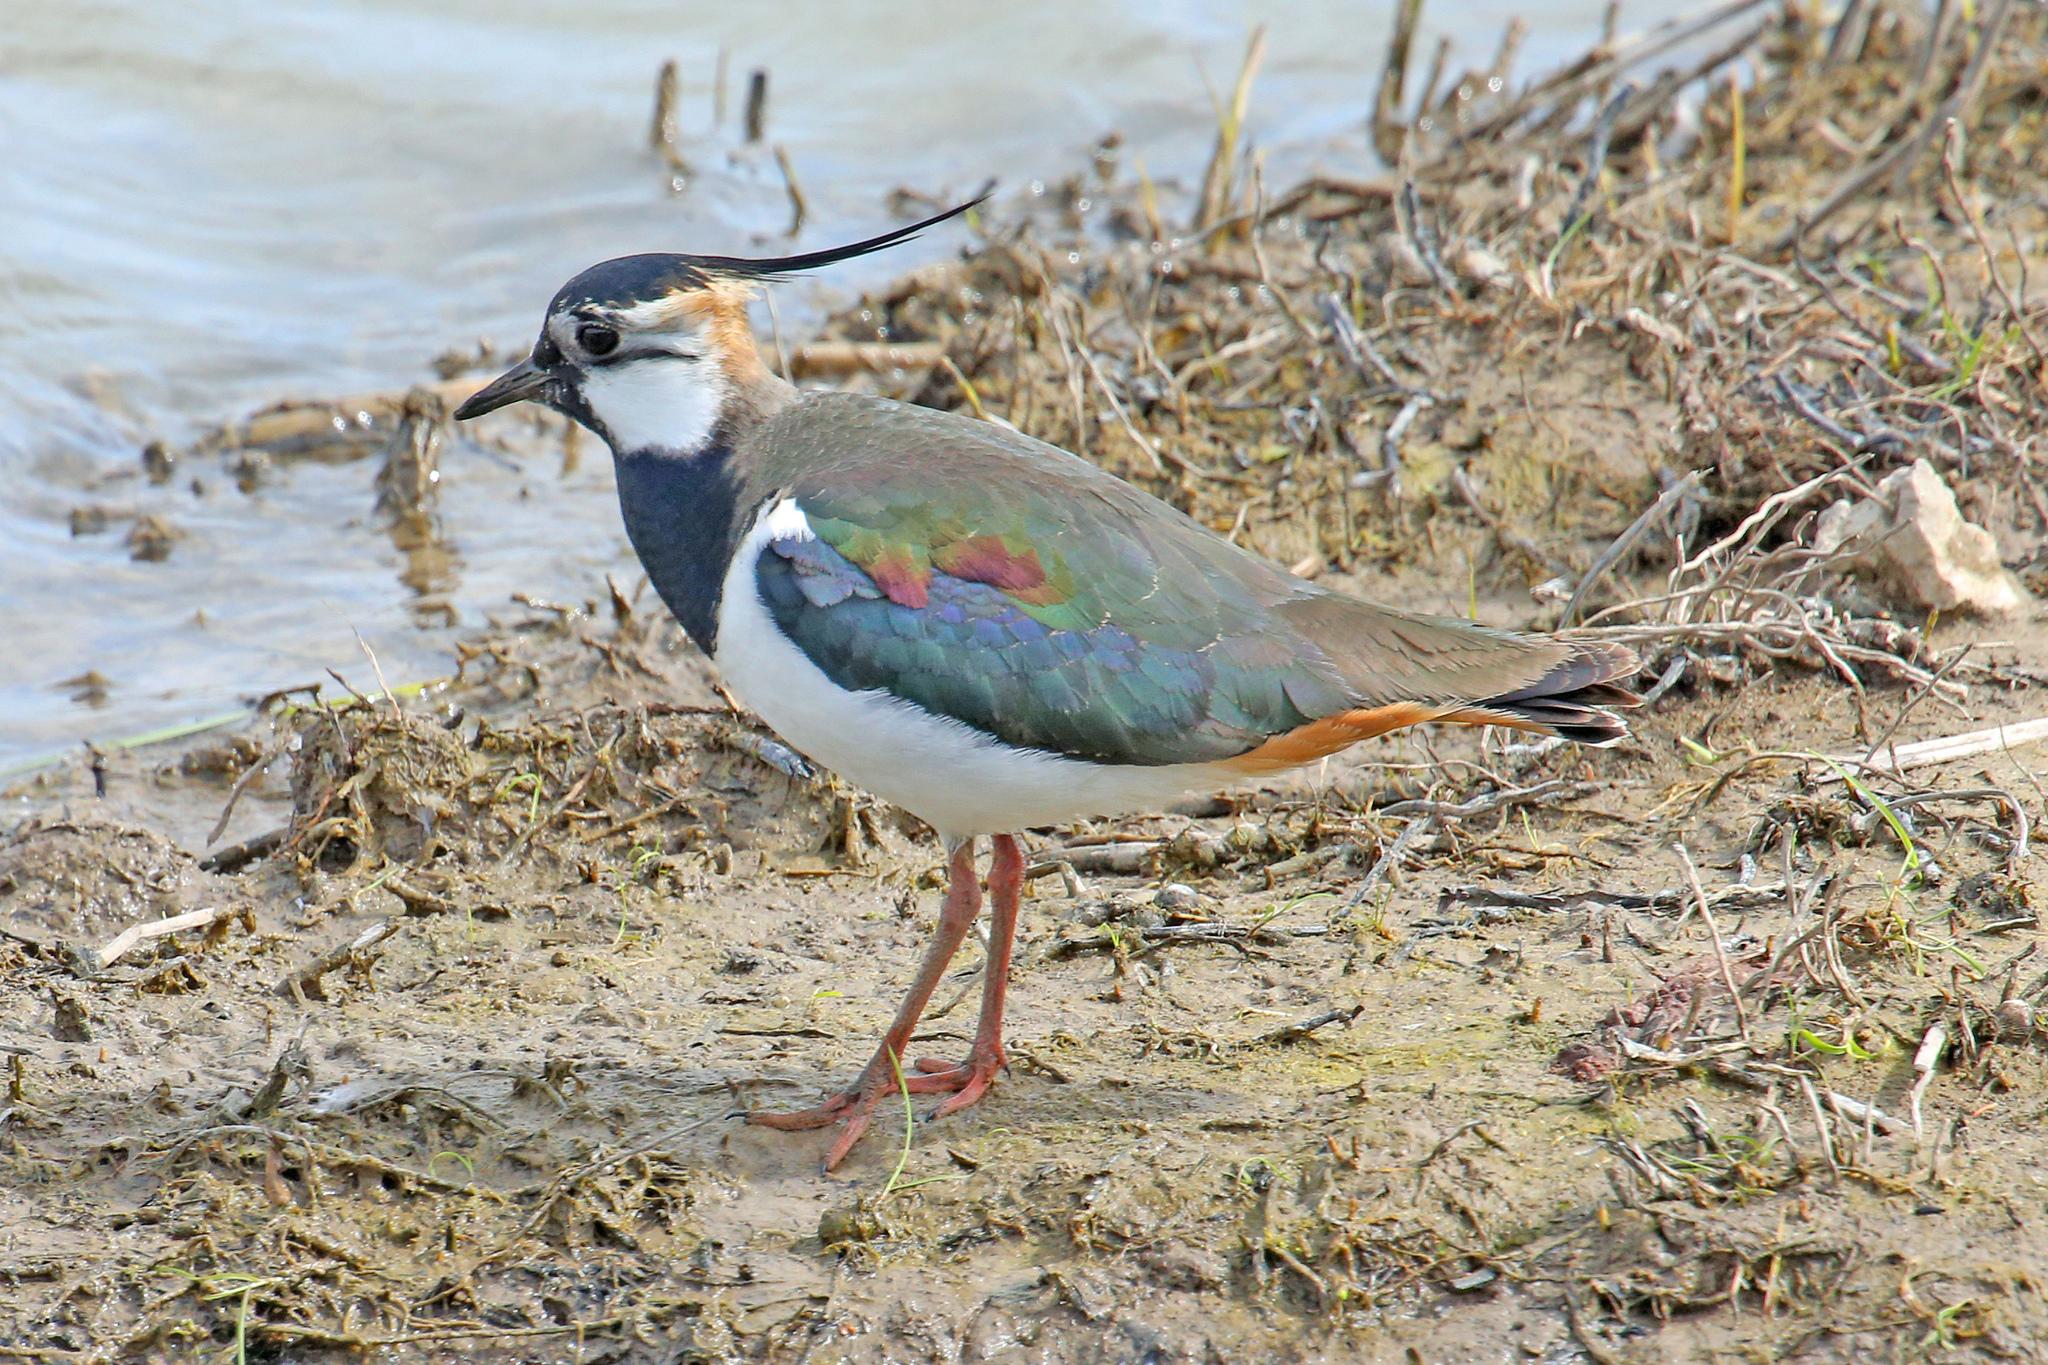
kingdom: Animalia
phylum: Chordata
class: Aves
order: Charadriiformes
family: Charadriidae
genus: Vanellus
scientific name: Vanellus vanellus
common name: Northern lapwing
